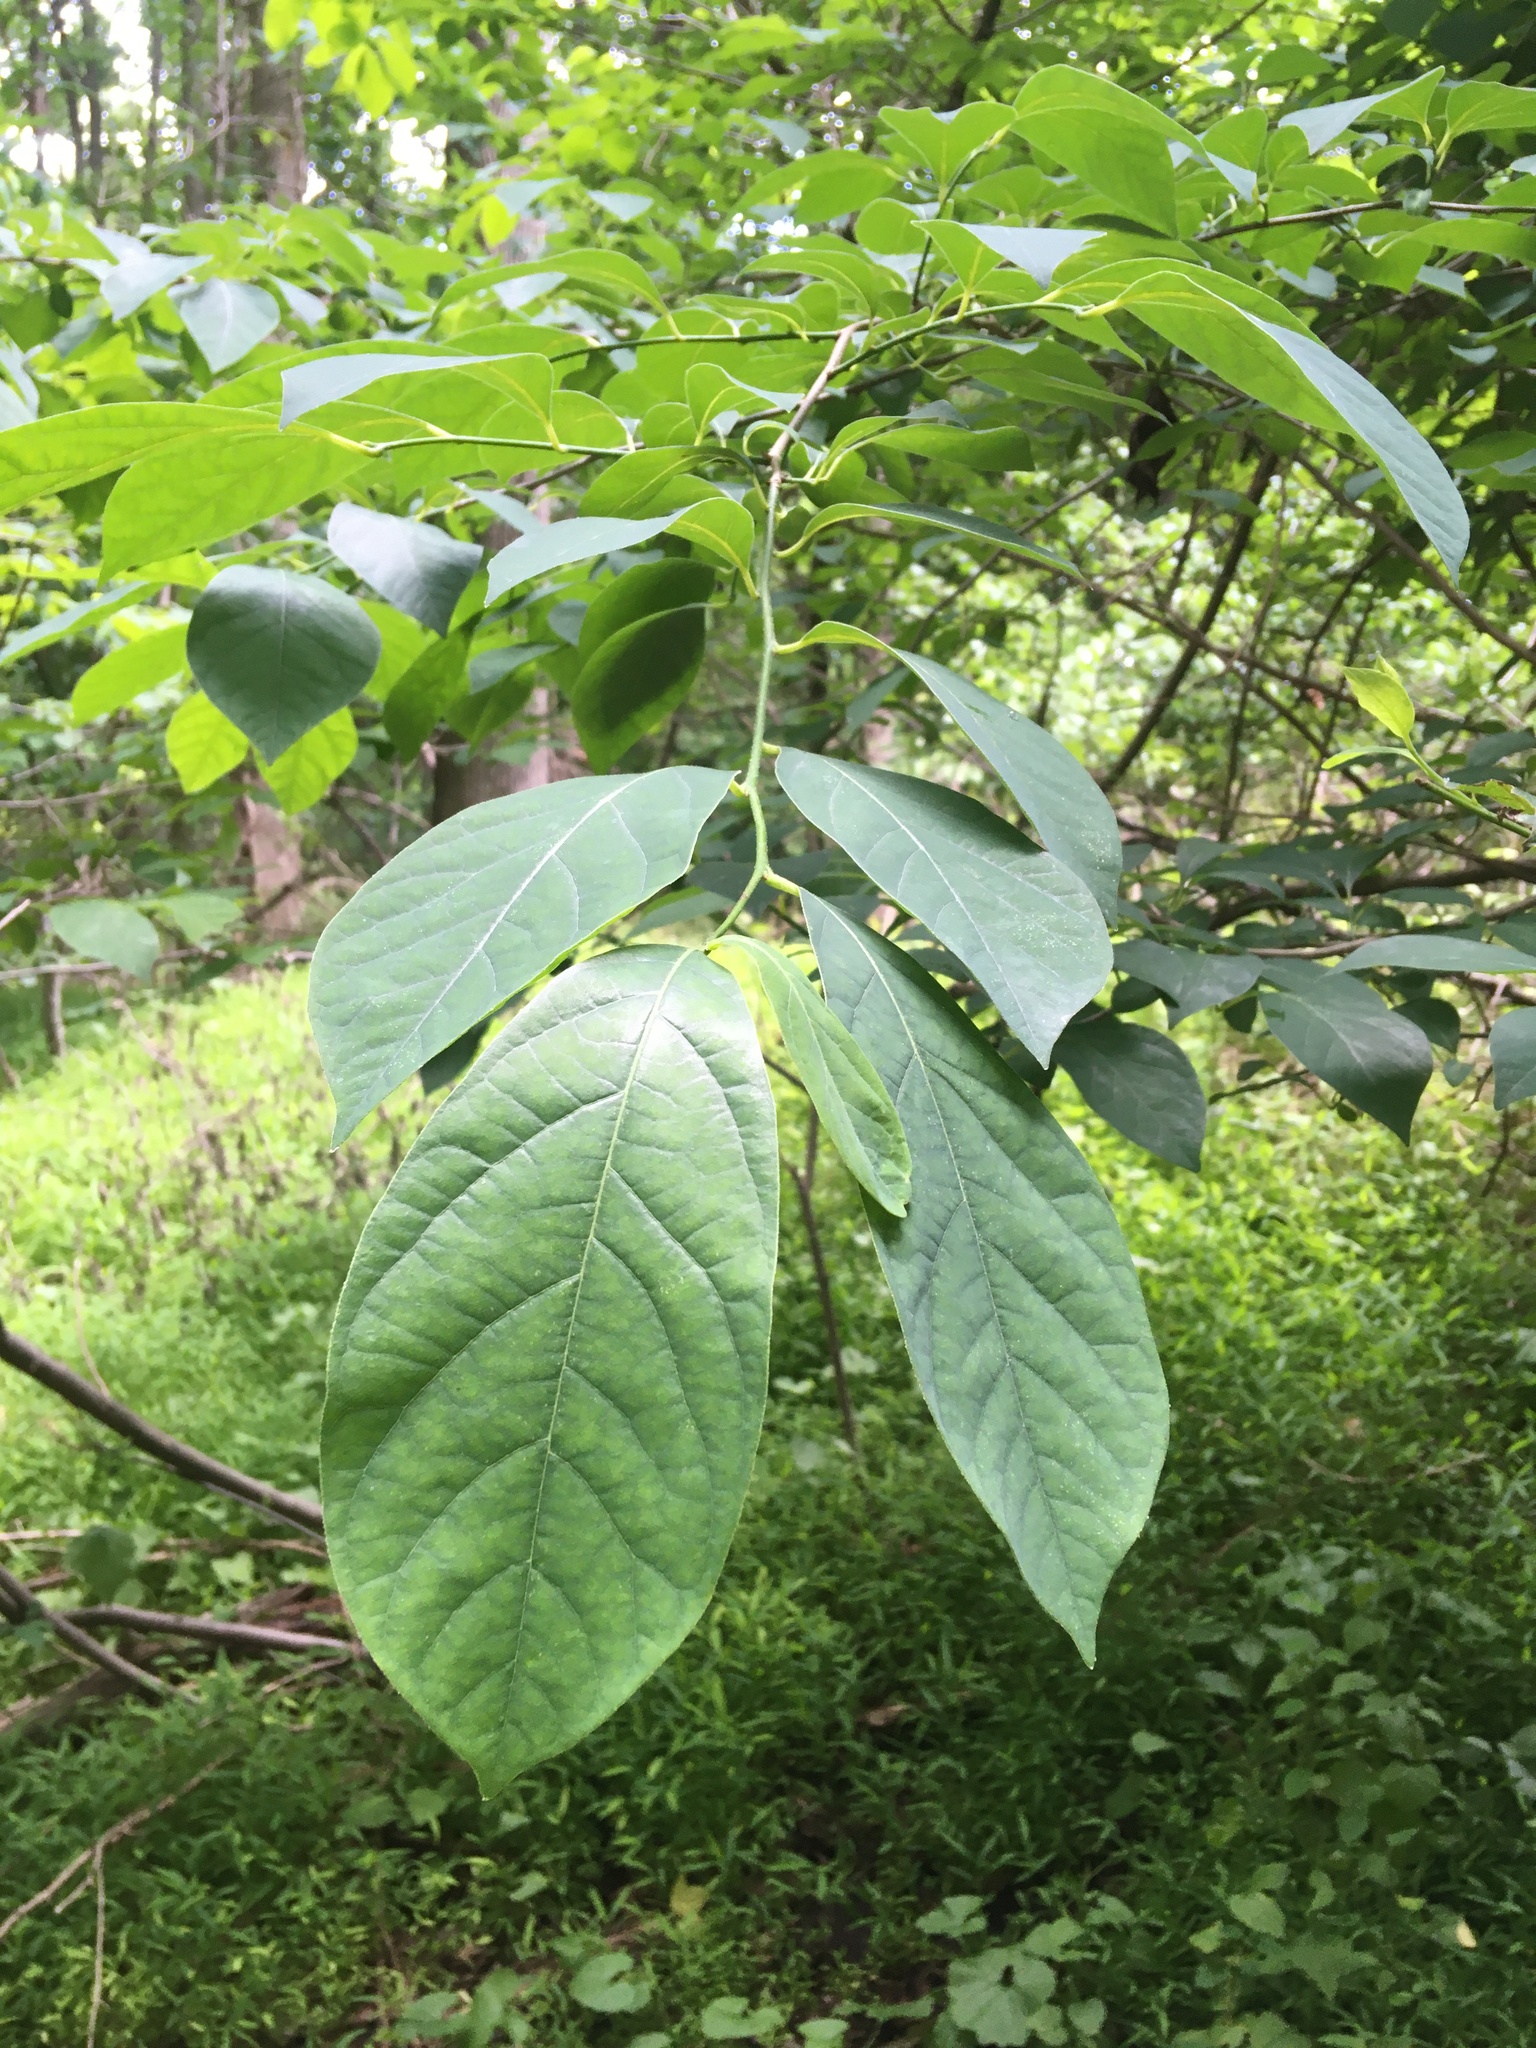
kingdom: Plantae
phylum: Tracheophyta
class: Magnoliopsida
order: Laurales
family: Lauraceae
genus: Lindera
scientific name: Lindera benzoin
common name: Spicebush
